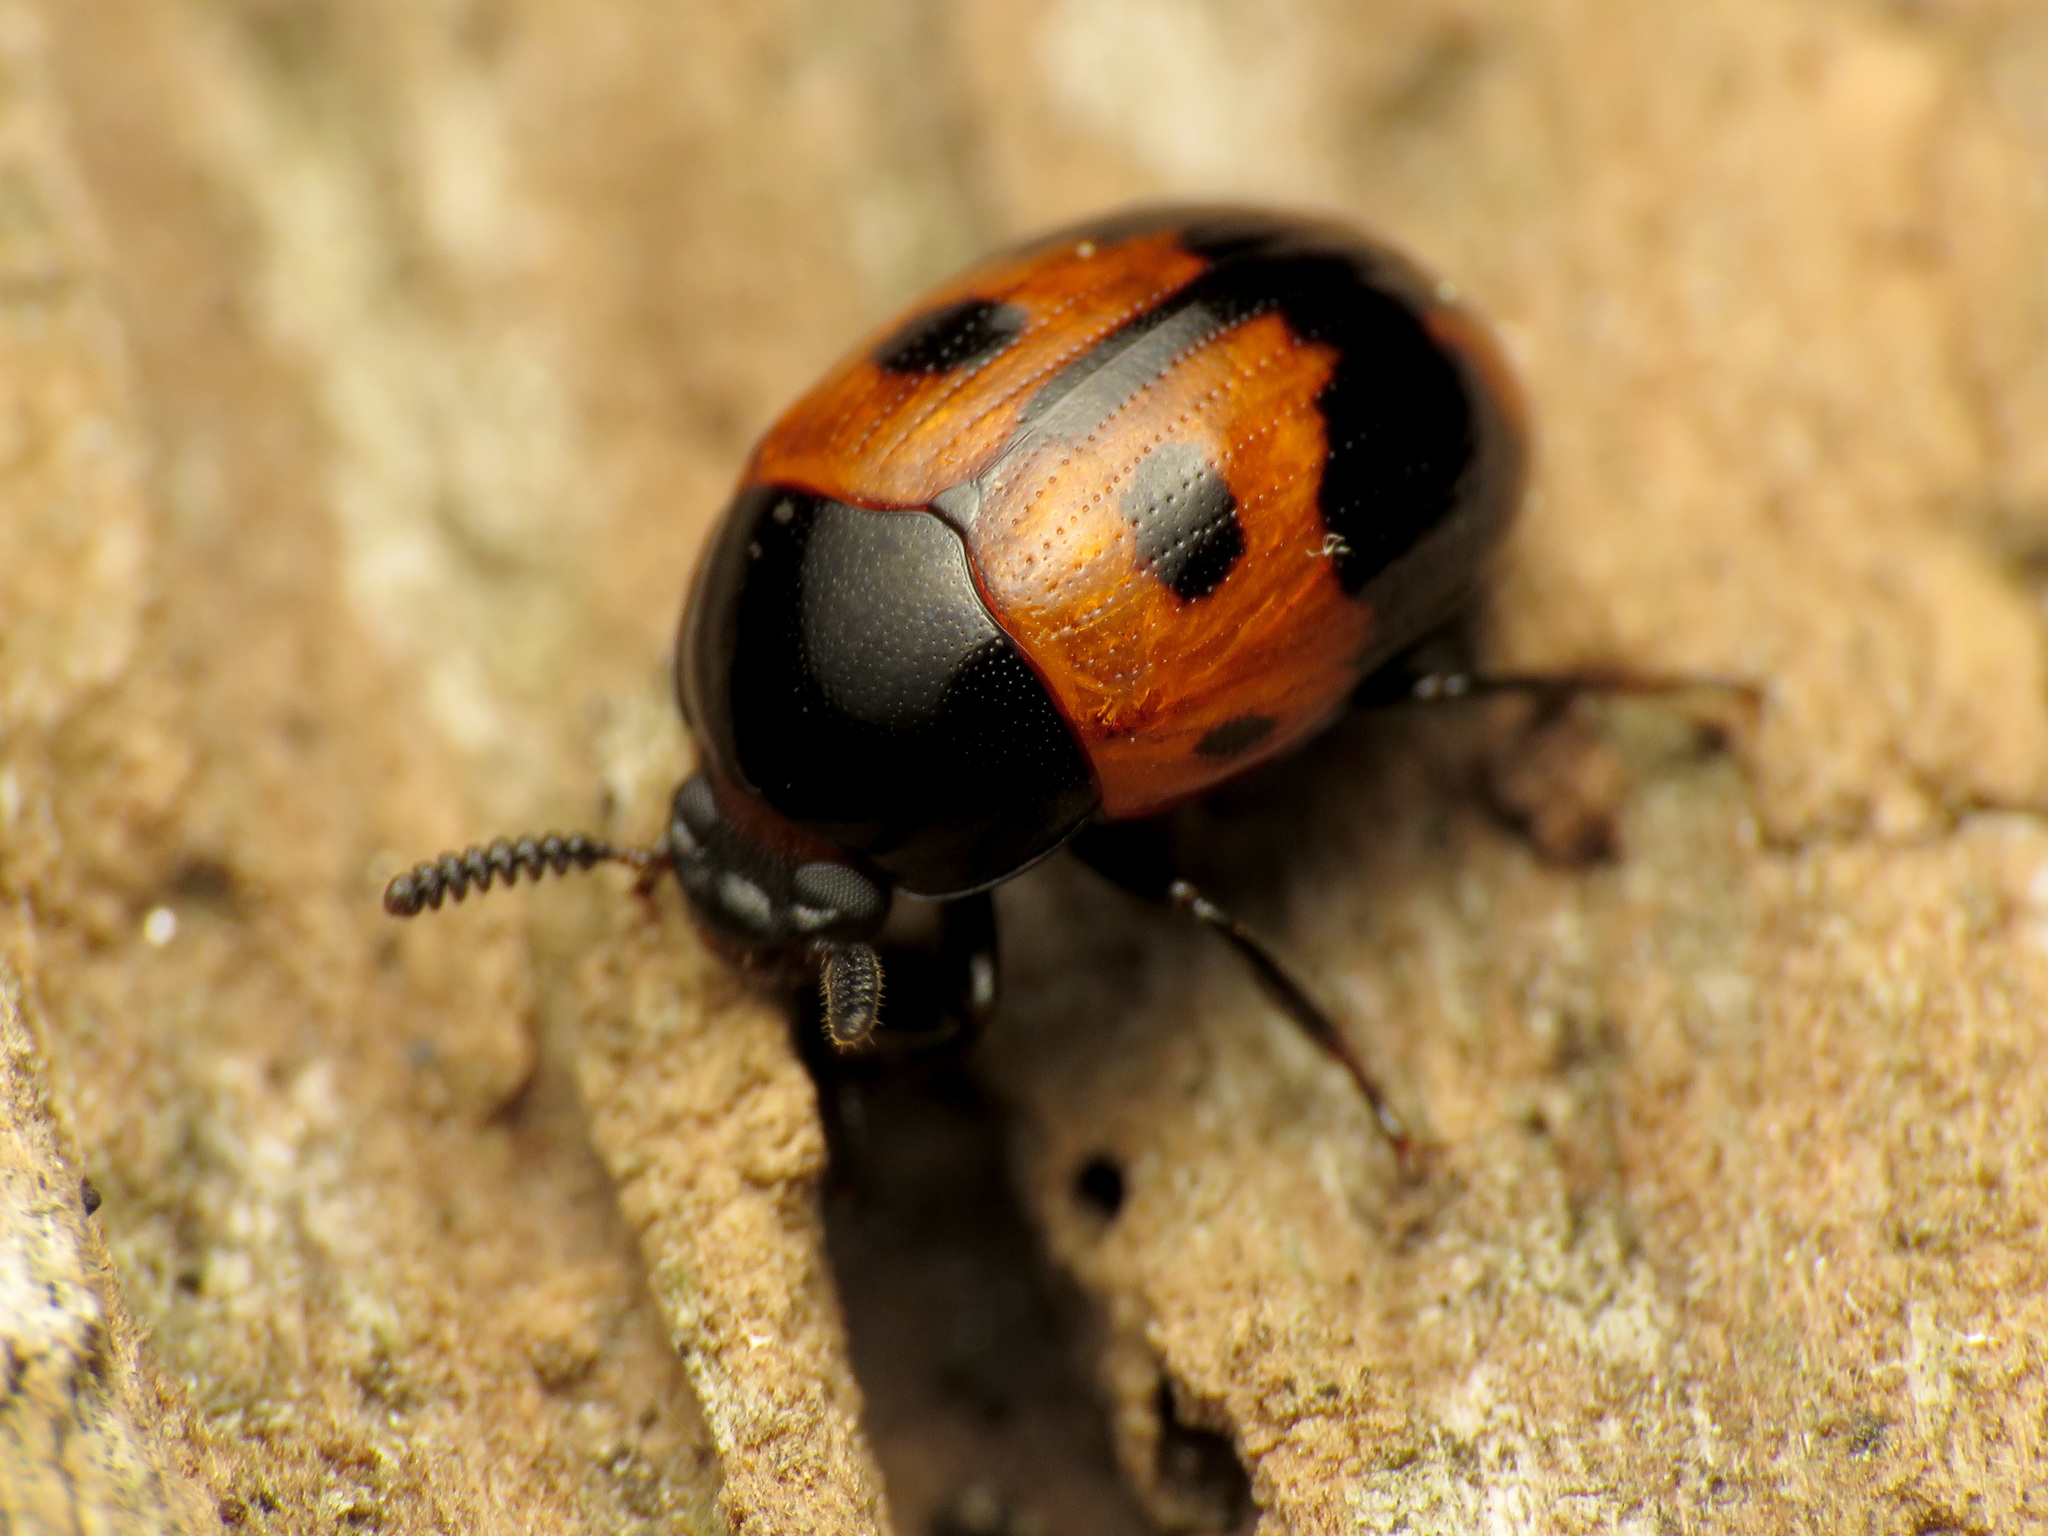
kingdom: Animalia
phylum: Arthropoda
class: Insecta
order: Coleoptera
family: Tenebrionidae
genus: Diaperis
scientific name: Diaperis maculata
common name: Darkling beetle
